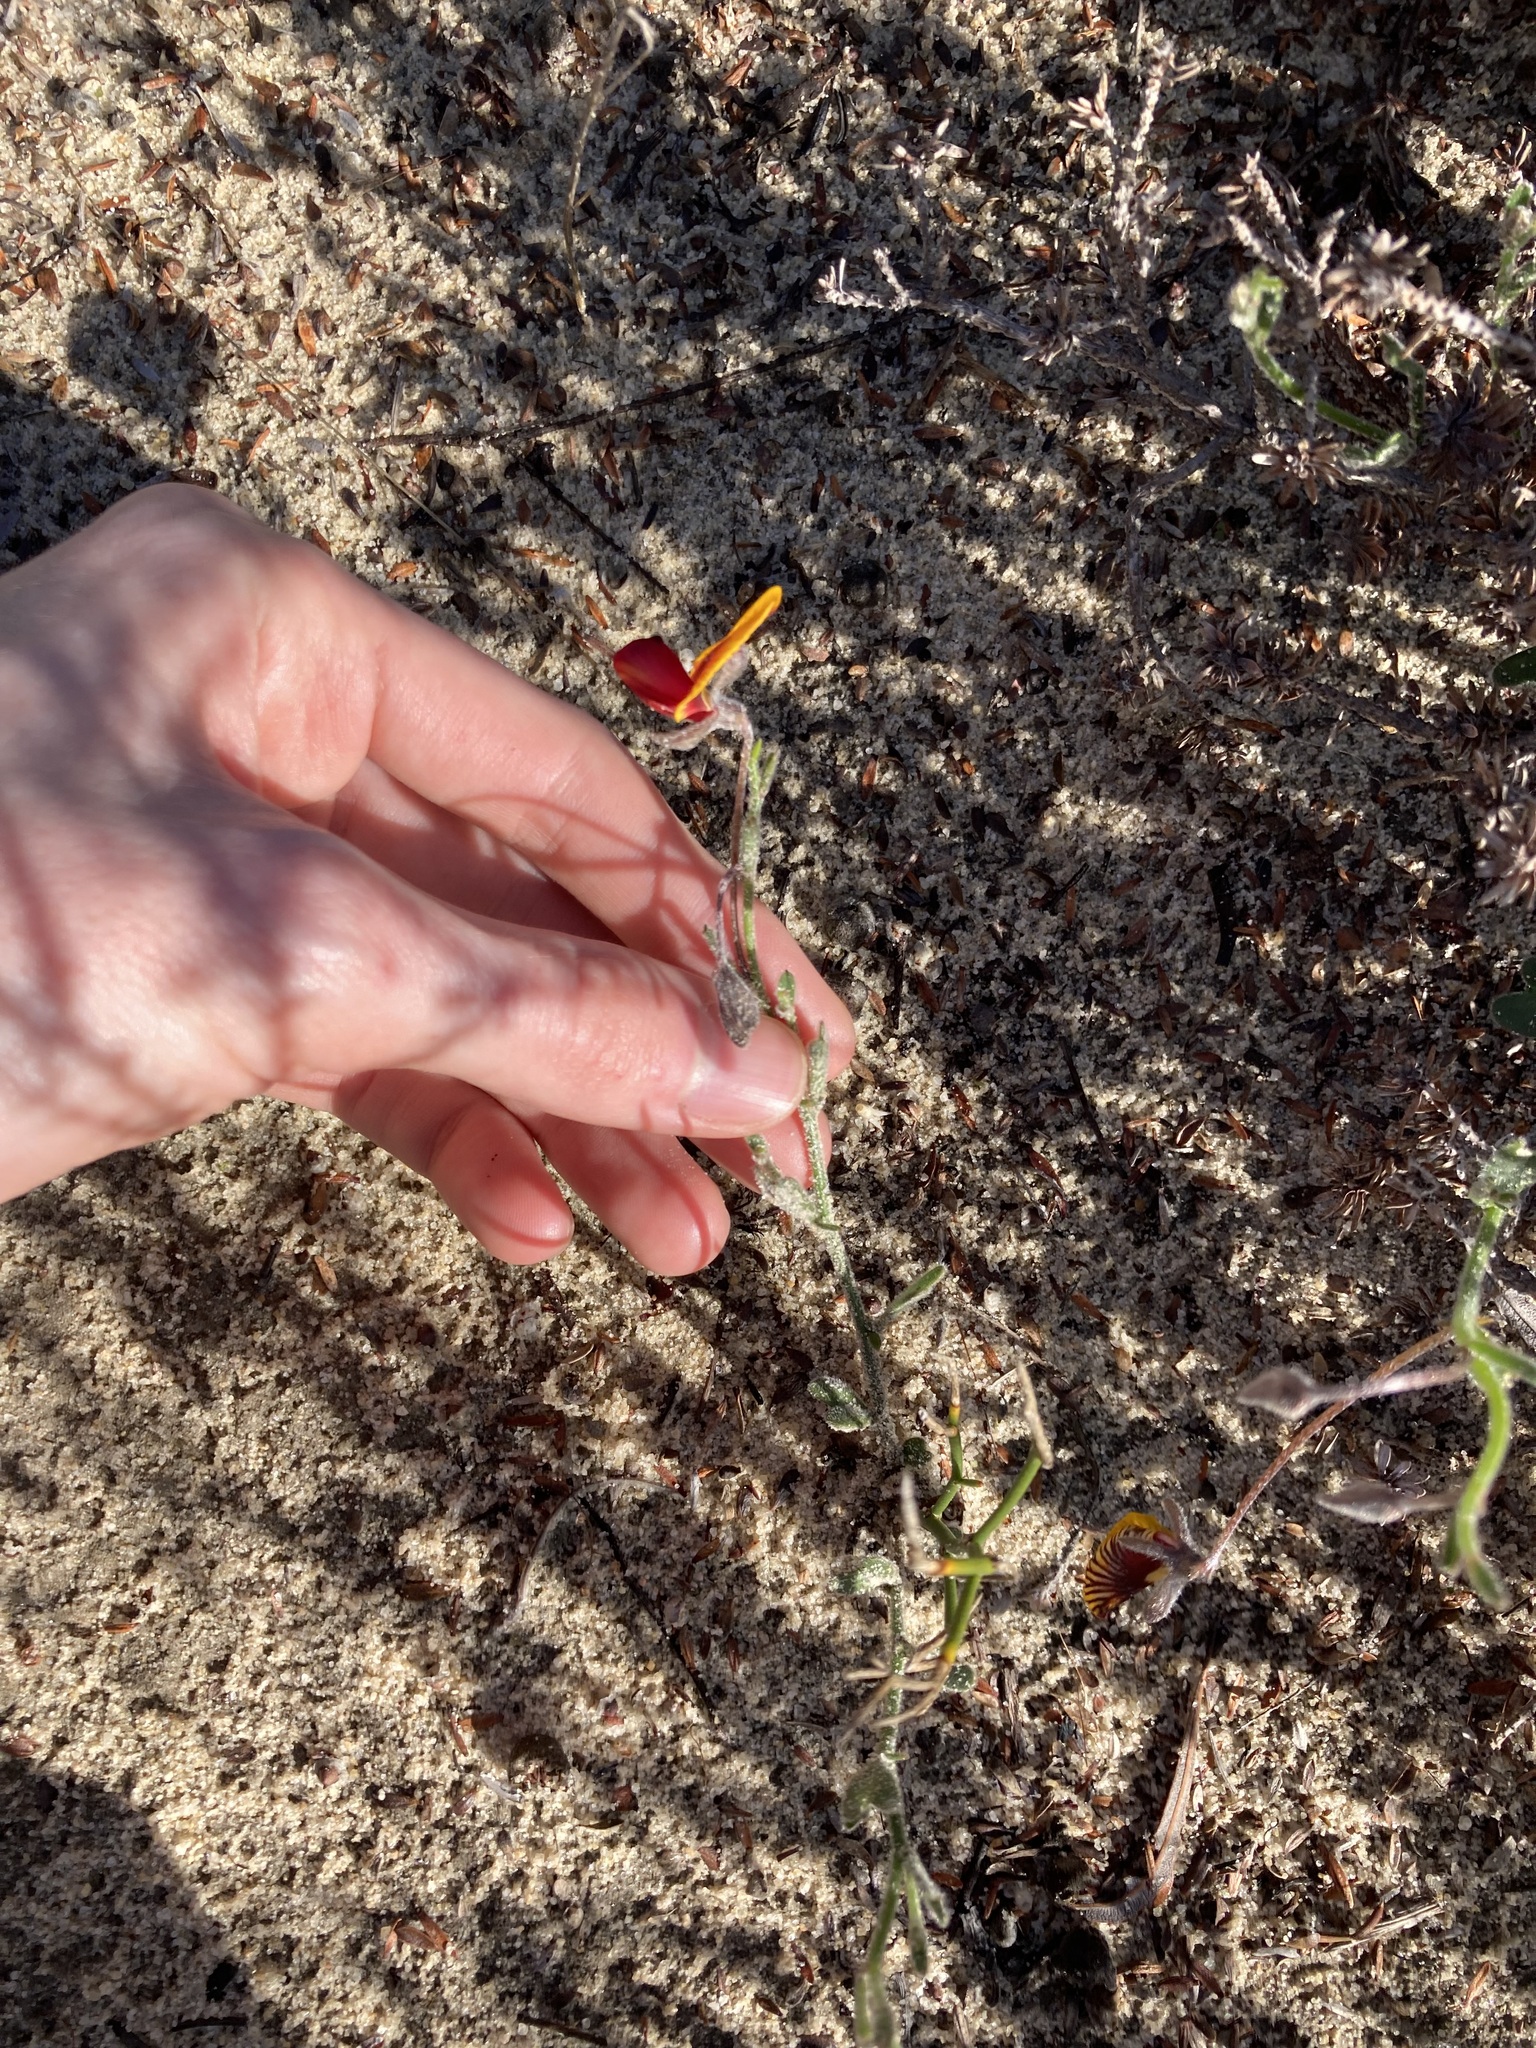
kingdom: Plantae
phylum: Tracheophyta
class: Magnoliopsida
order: Fabales
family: Fabaceae
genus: Isotropis
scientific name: Isotropis cuneifolia
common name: Granny bonnets
